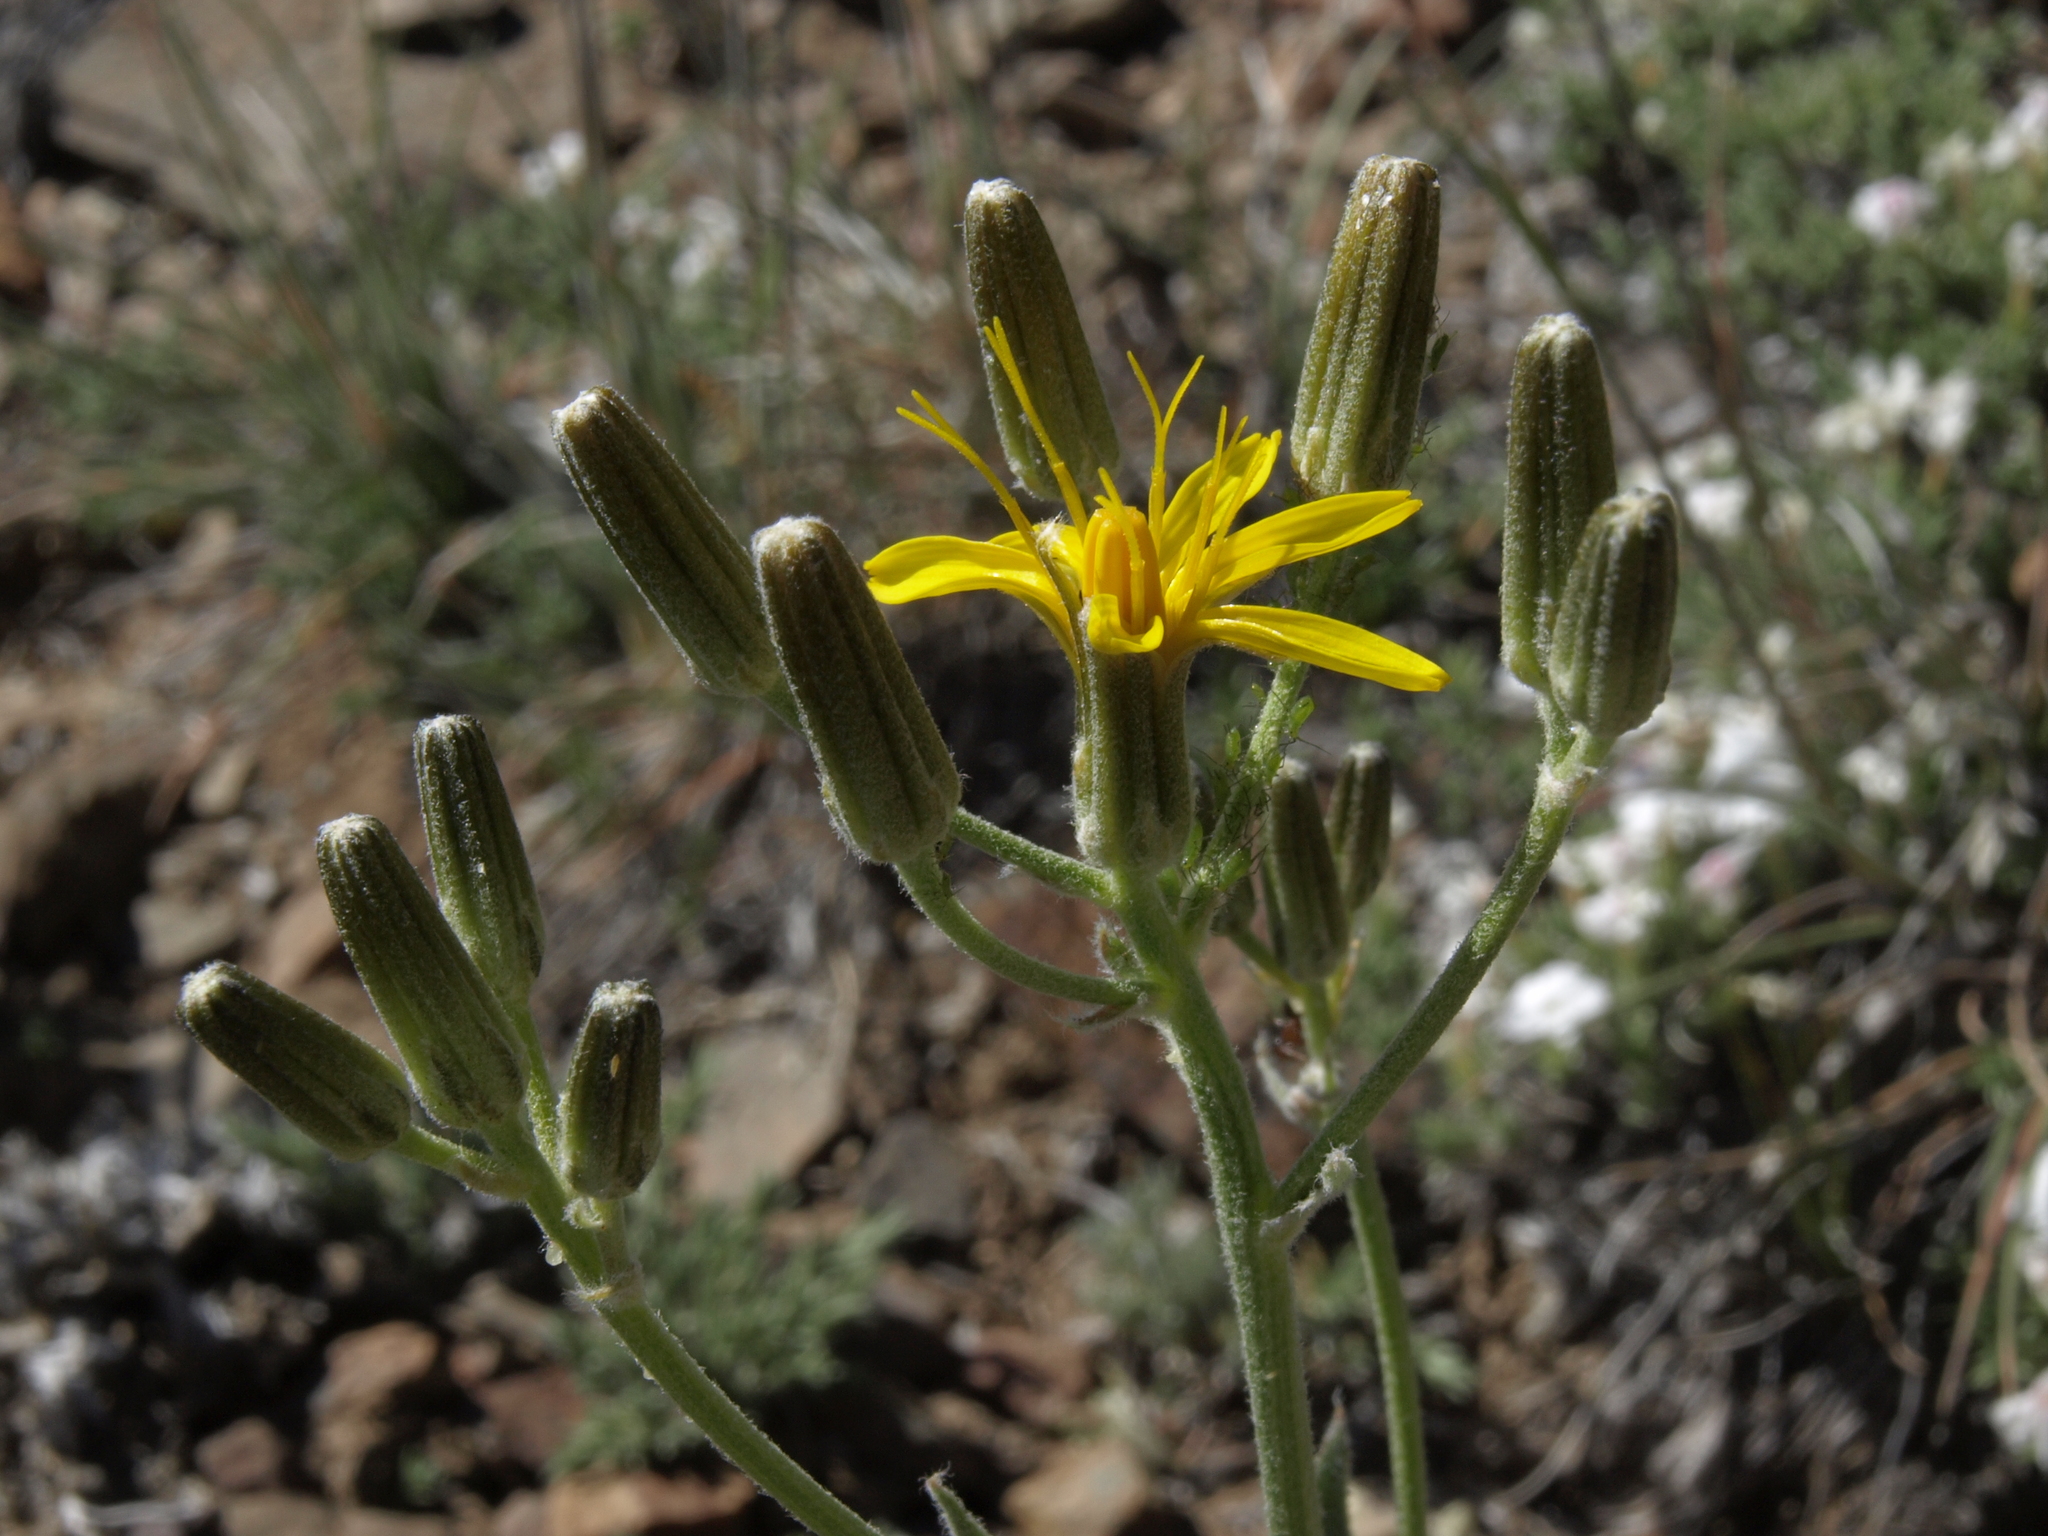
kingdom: Plantae
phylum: Tracheophyta
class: Magnoliopsida
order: Asterales
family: Asteraceae
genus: Crepis
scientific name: Crepis intermedia
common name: Limestone hawk's-beard
